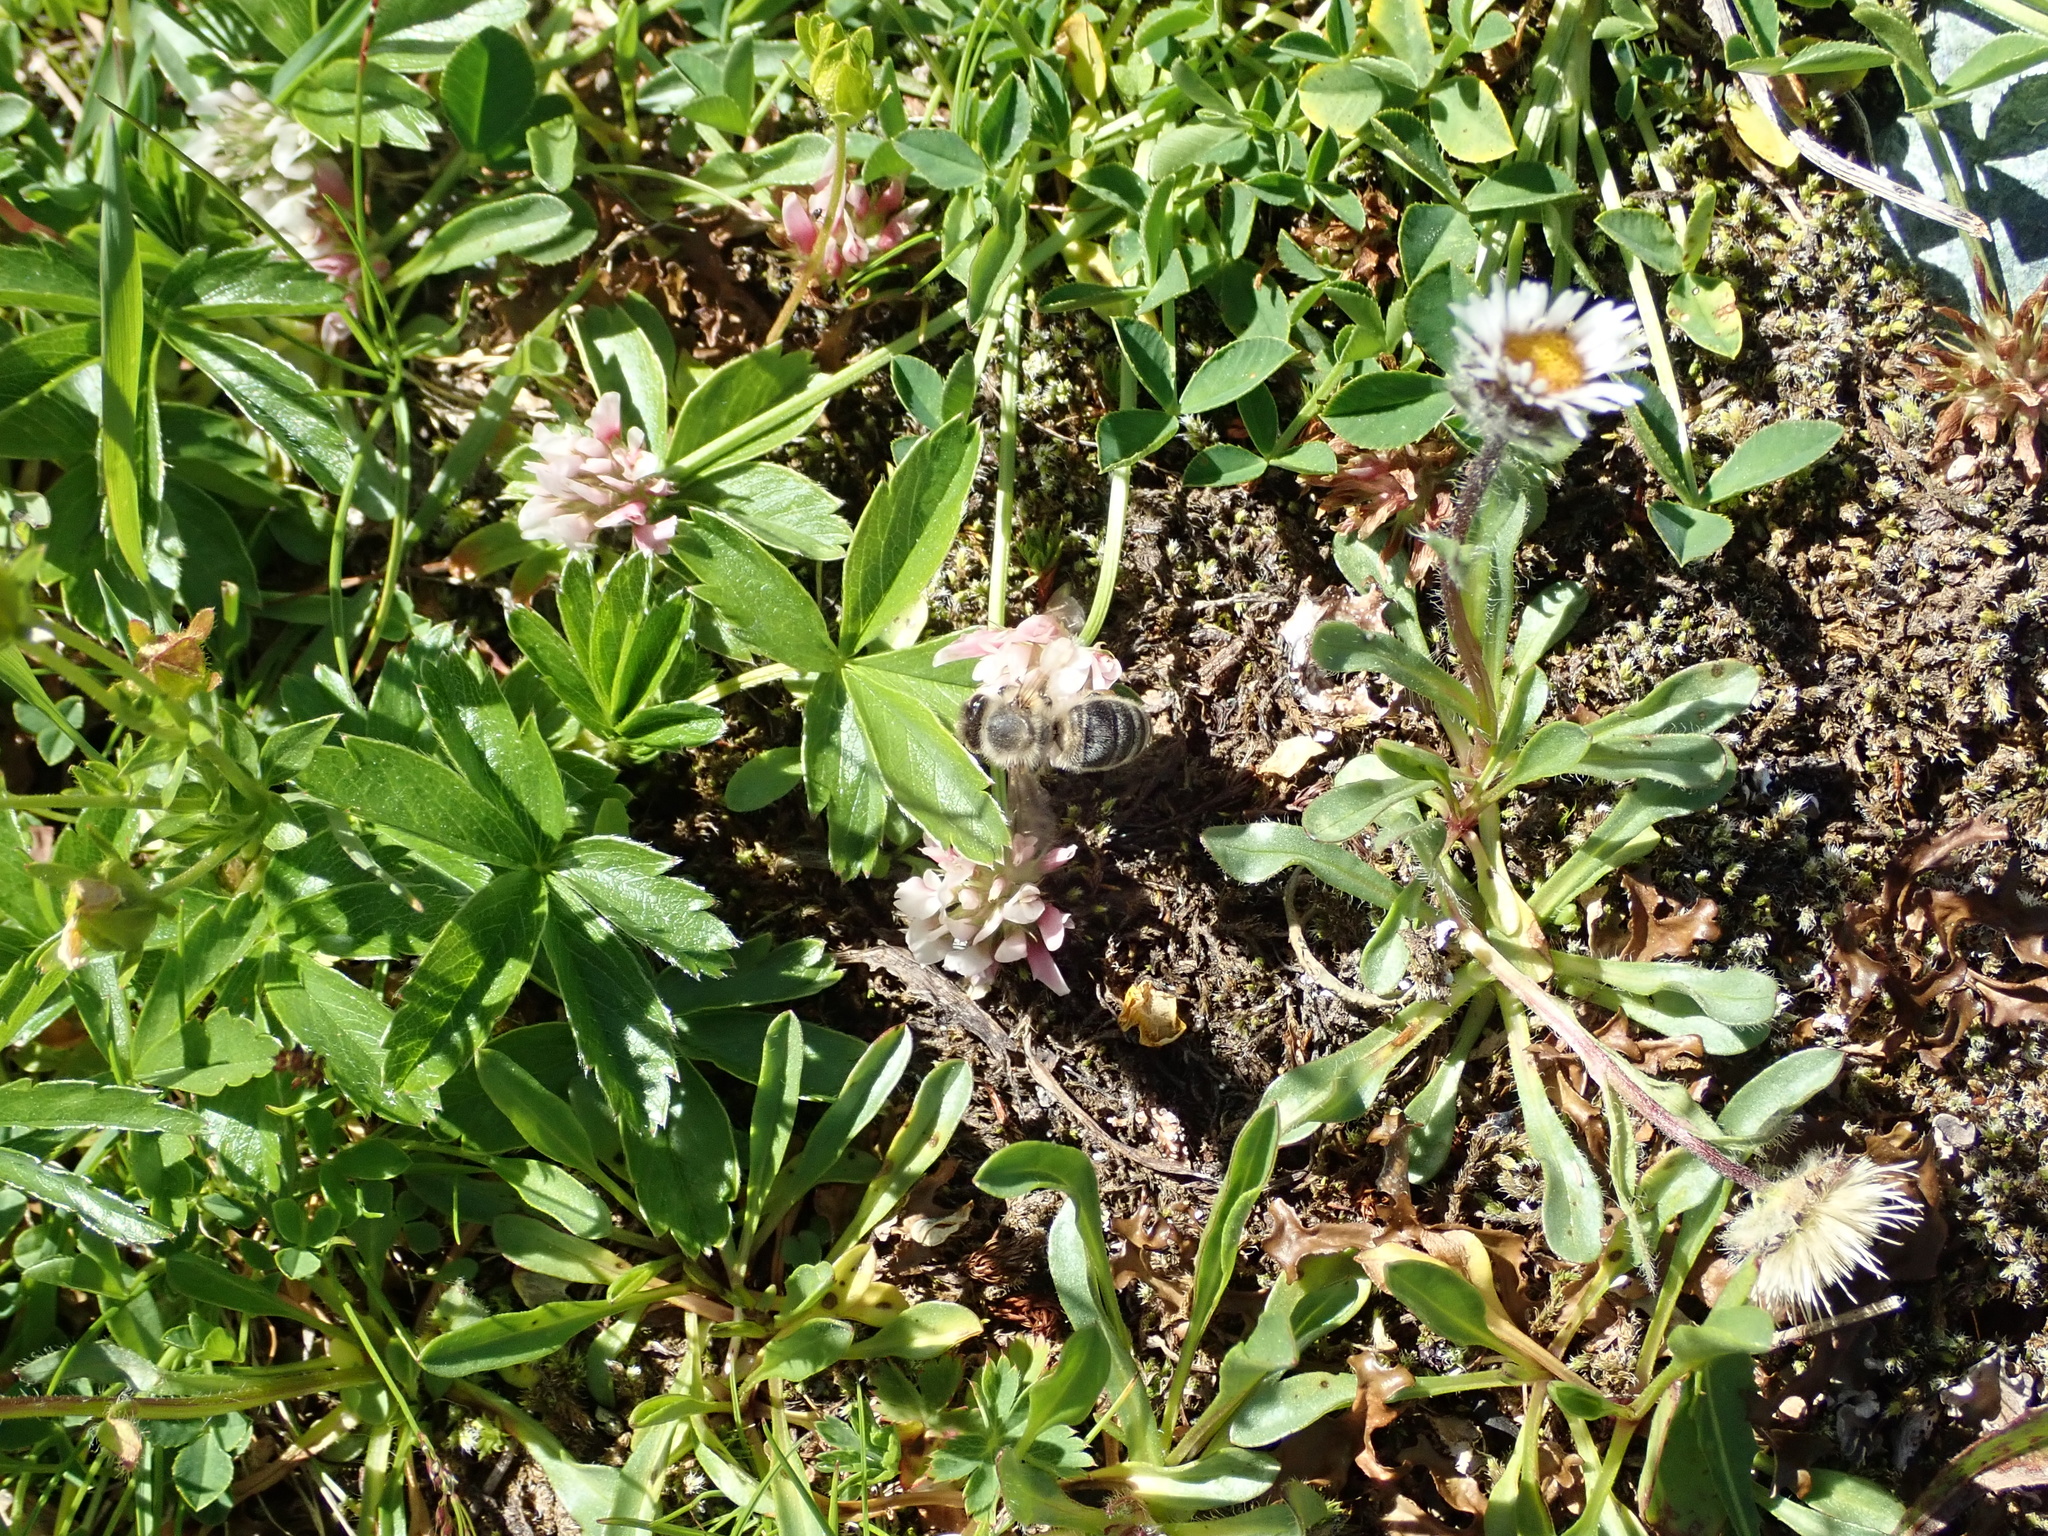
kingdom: Animalia
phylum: Arthropoda
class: Insecta
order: Hymenoptera
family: Apidae
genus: Apis
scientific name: Apis mellifera
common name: Honey bee
